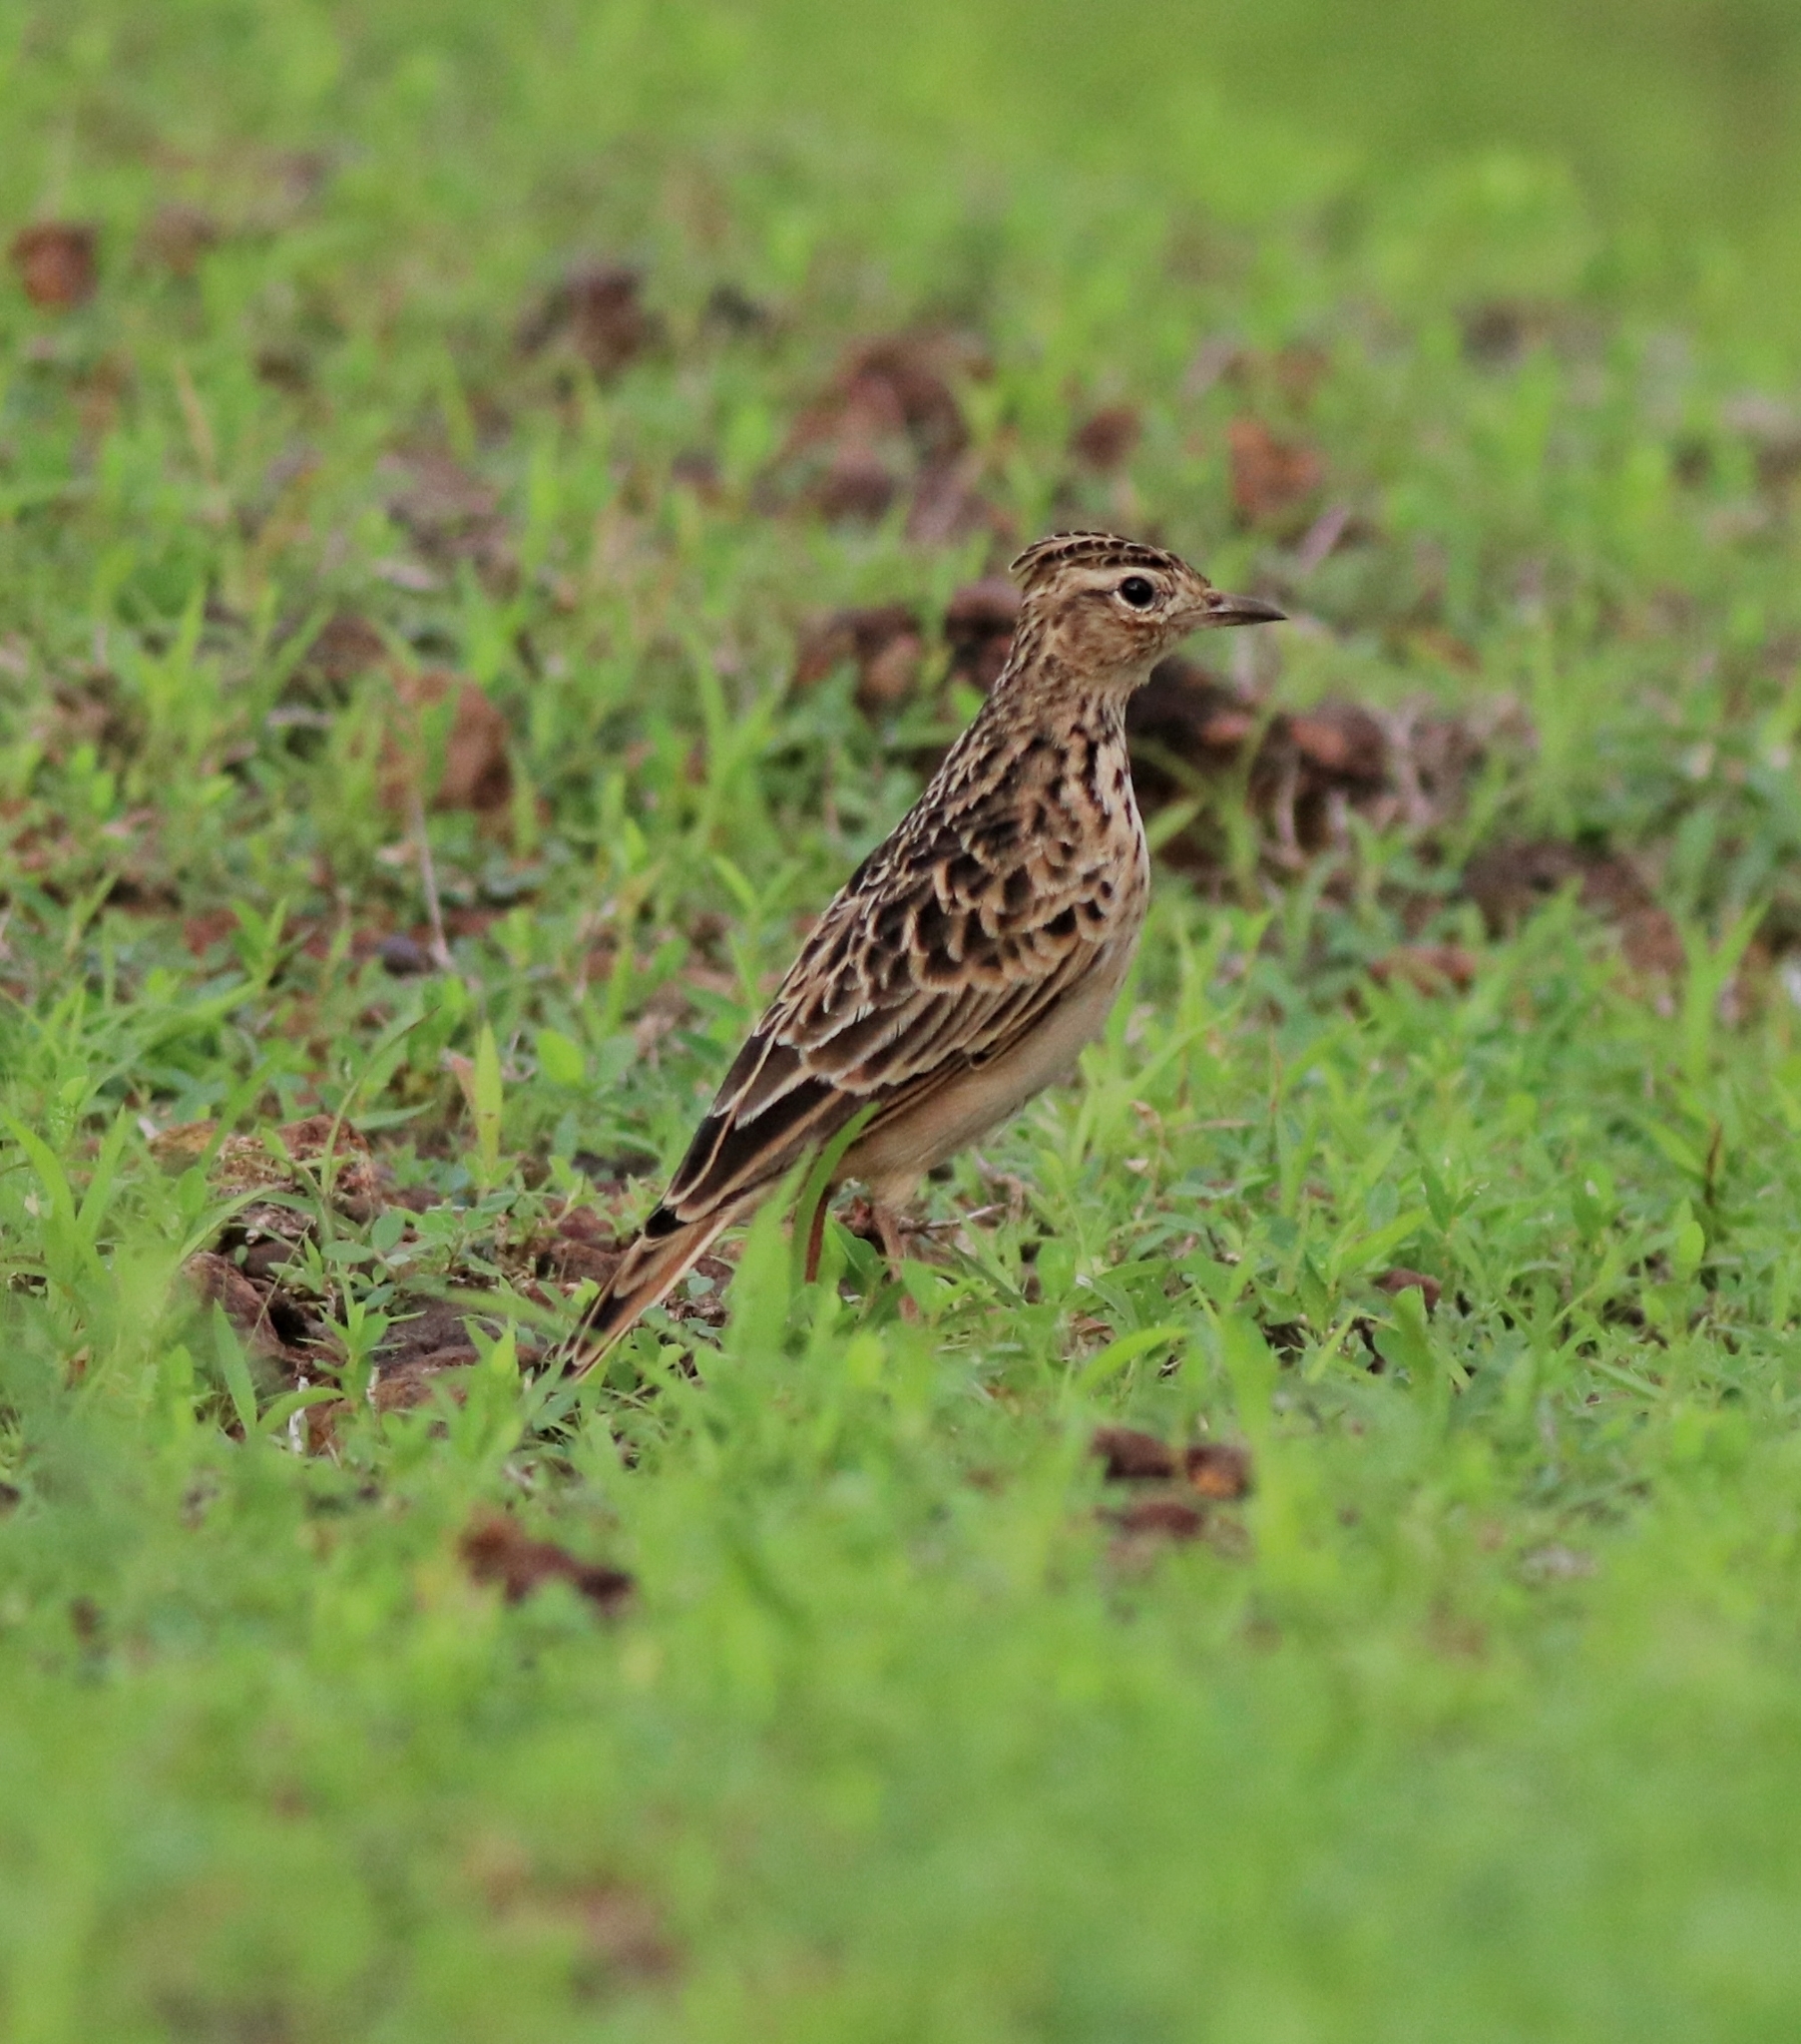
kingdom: Animalia
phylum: Chordata
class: Aves
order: Passeriformes
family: Alaudidae
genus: Alauda
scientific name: Alauda gulgula
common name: Oriental skylark
